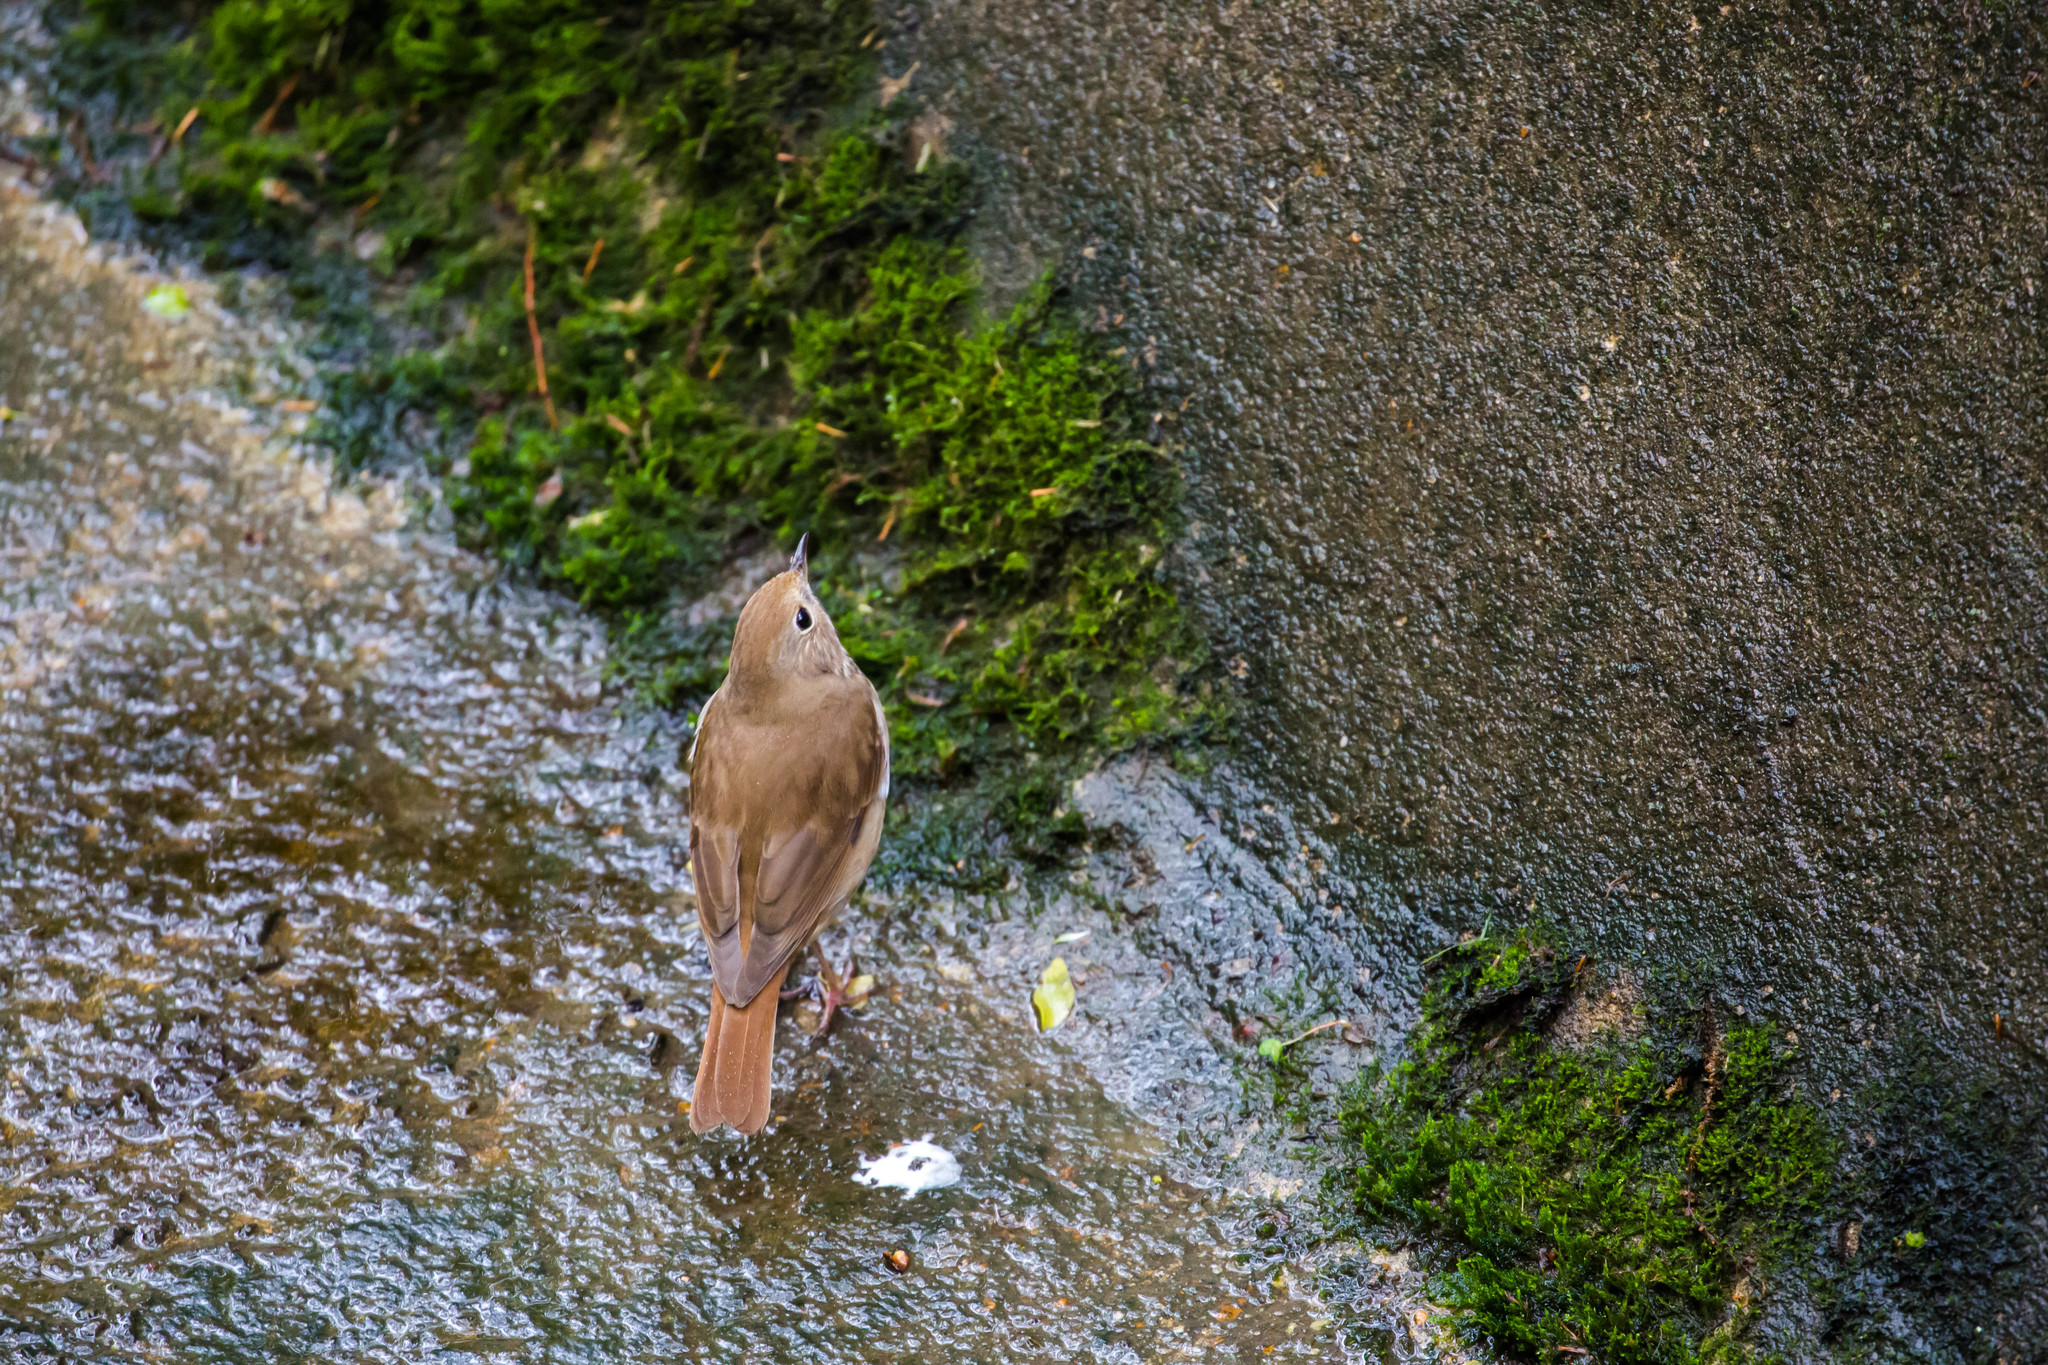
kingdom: Animalia
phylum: Chordata
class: Aves
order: Passeriformes
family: Turdidae
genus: Catharus
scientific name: Catharus guttatus
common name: Hermit thrush
